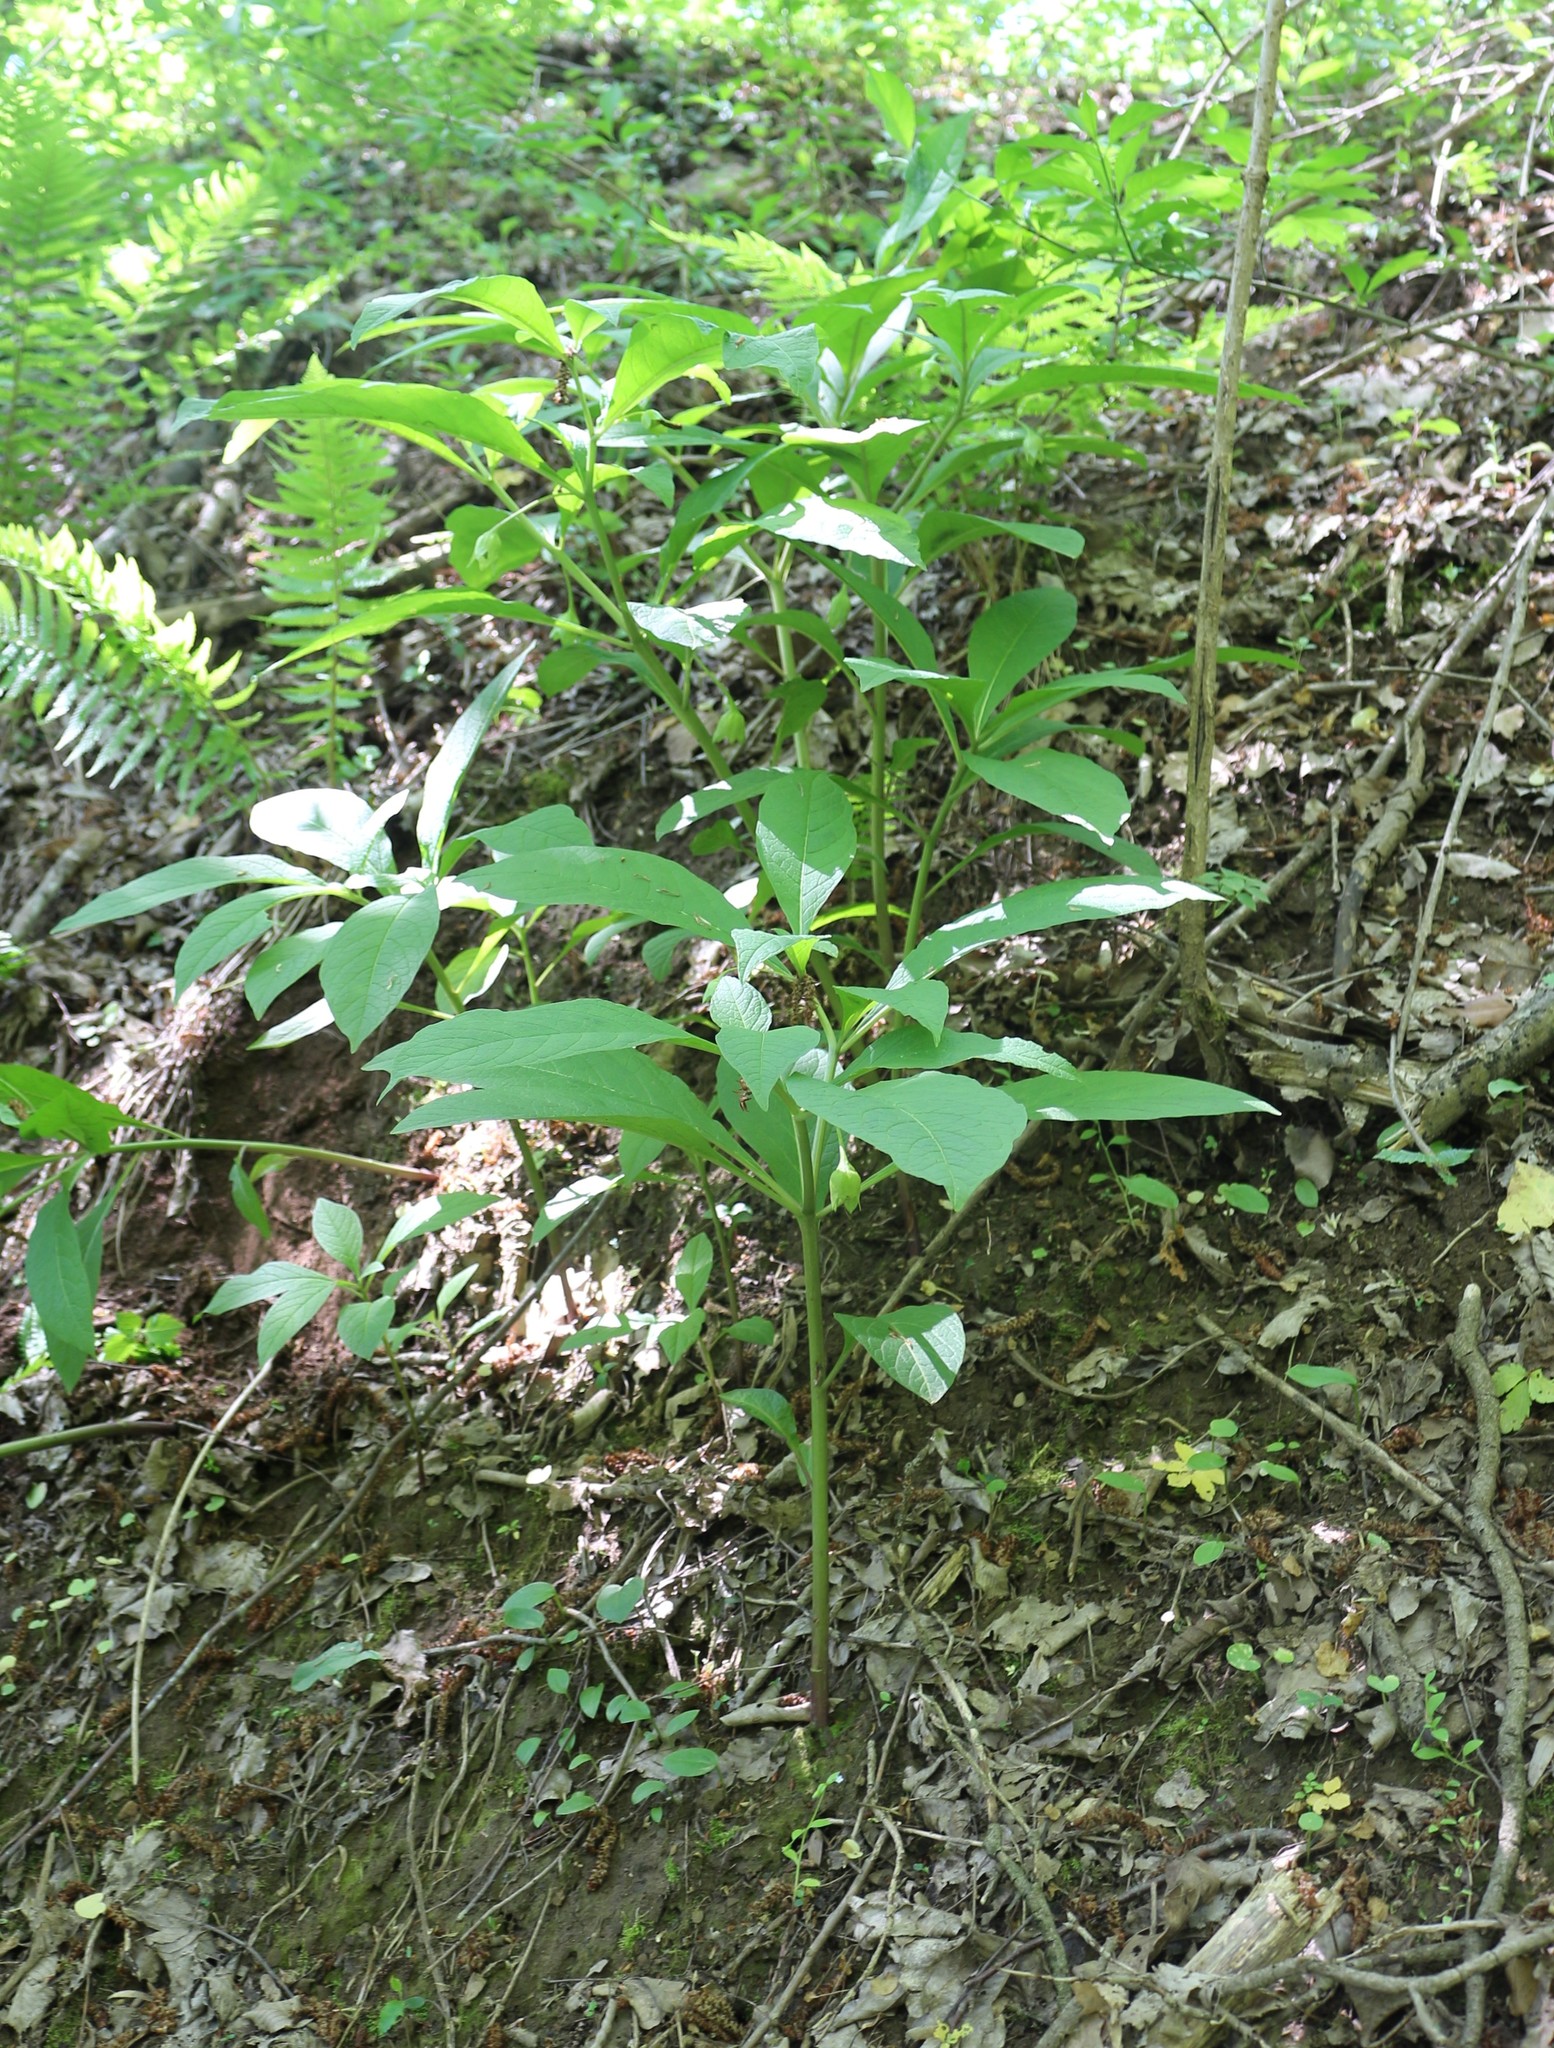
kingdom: Plantae
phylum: Tracheophyta
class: Magnoliopsida
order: Solanales
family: Solanaceae
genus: Scopolia
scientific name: Scopolia carniolica
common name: Scopolia
